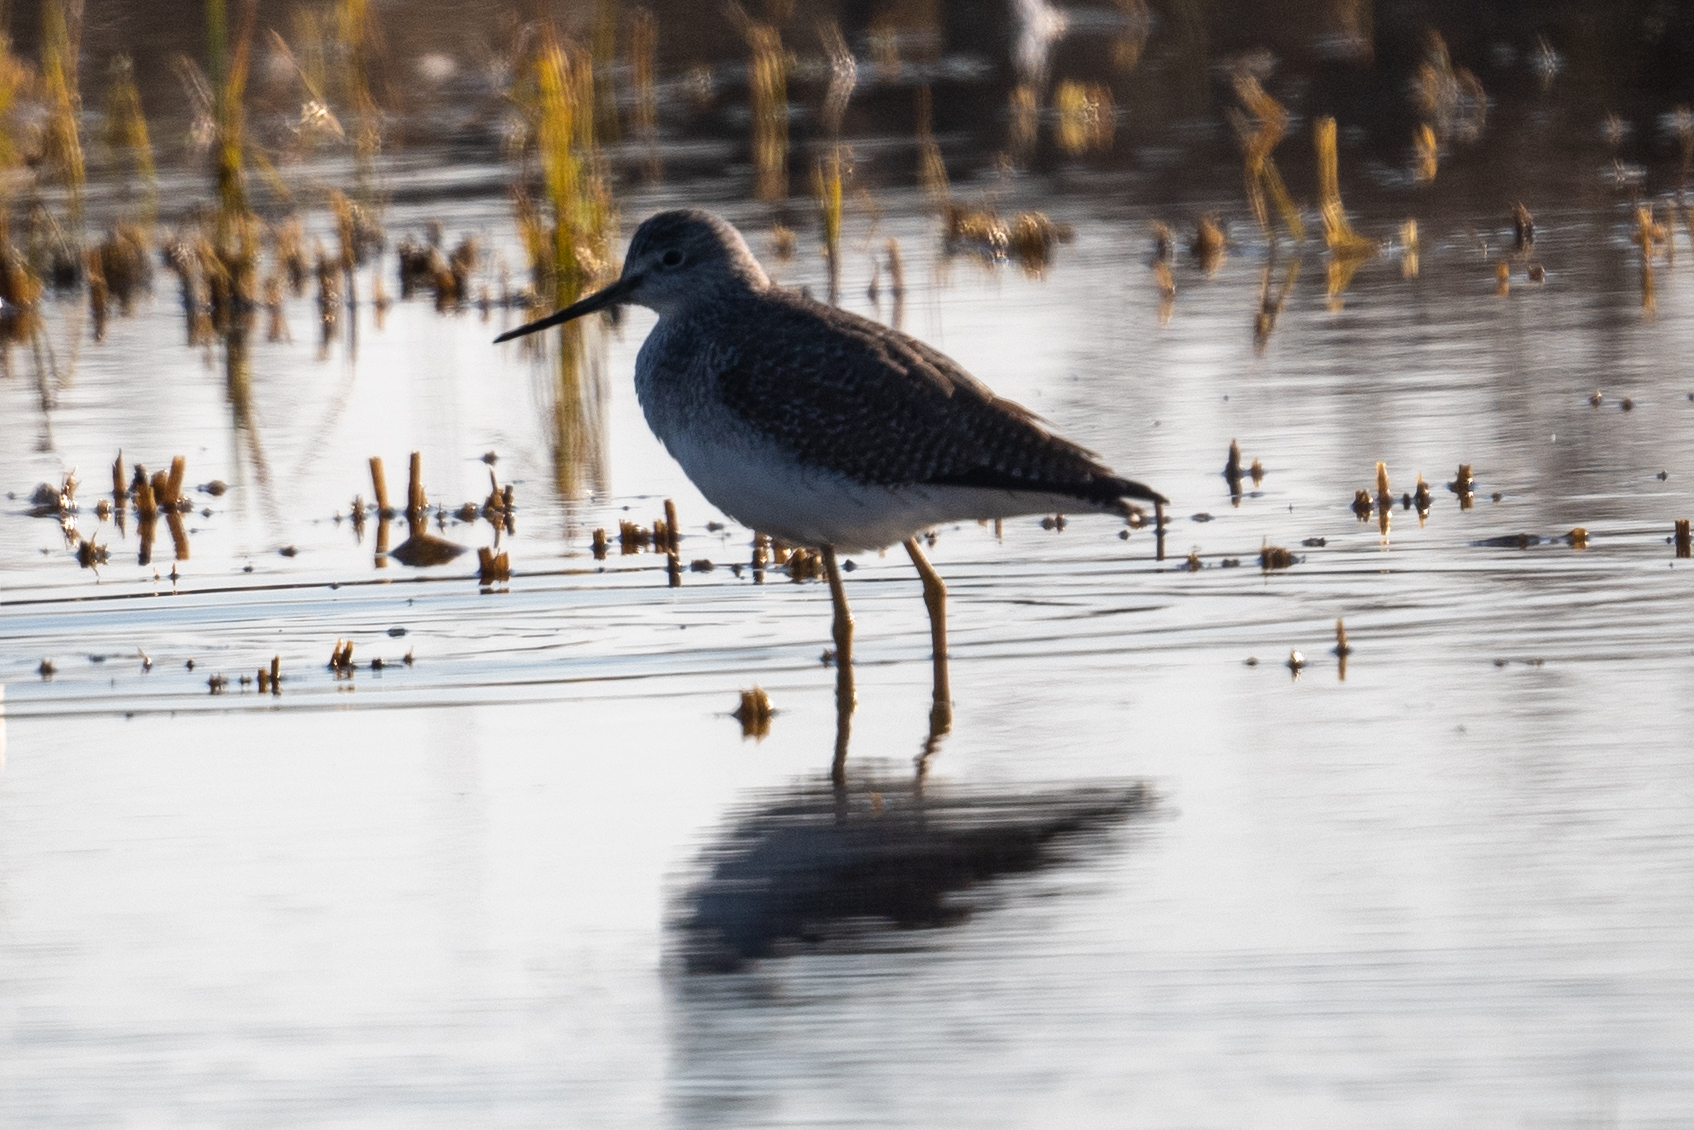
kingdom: Animalia
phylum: Chordata
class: Aves
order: Charadriiformes
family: Scolopacidae
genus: Tringa
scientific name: Tringa melanoleuca
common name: Greater yellowlegs
